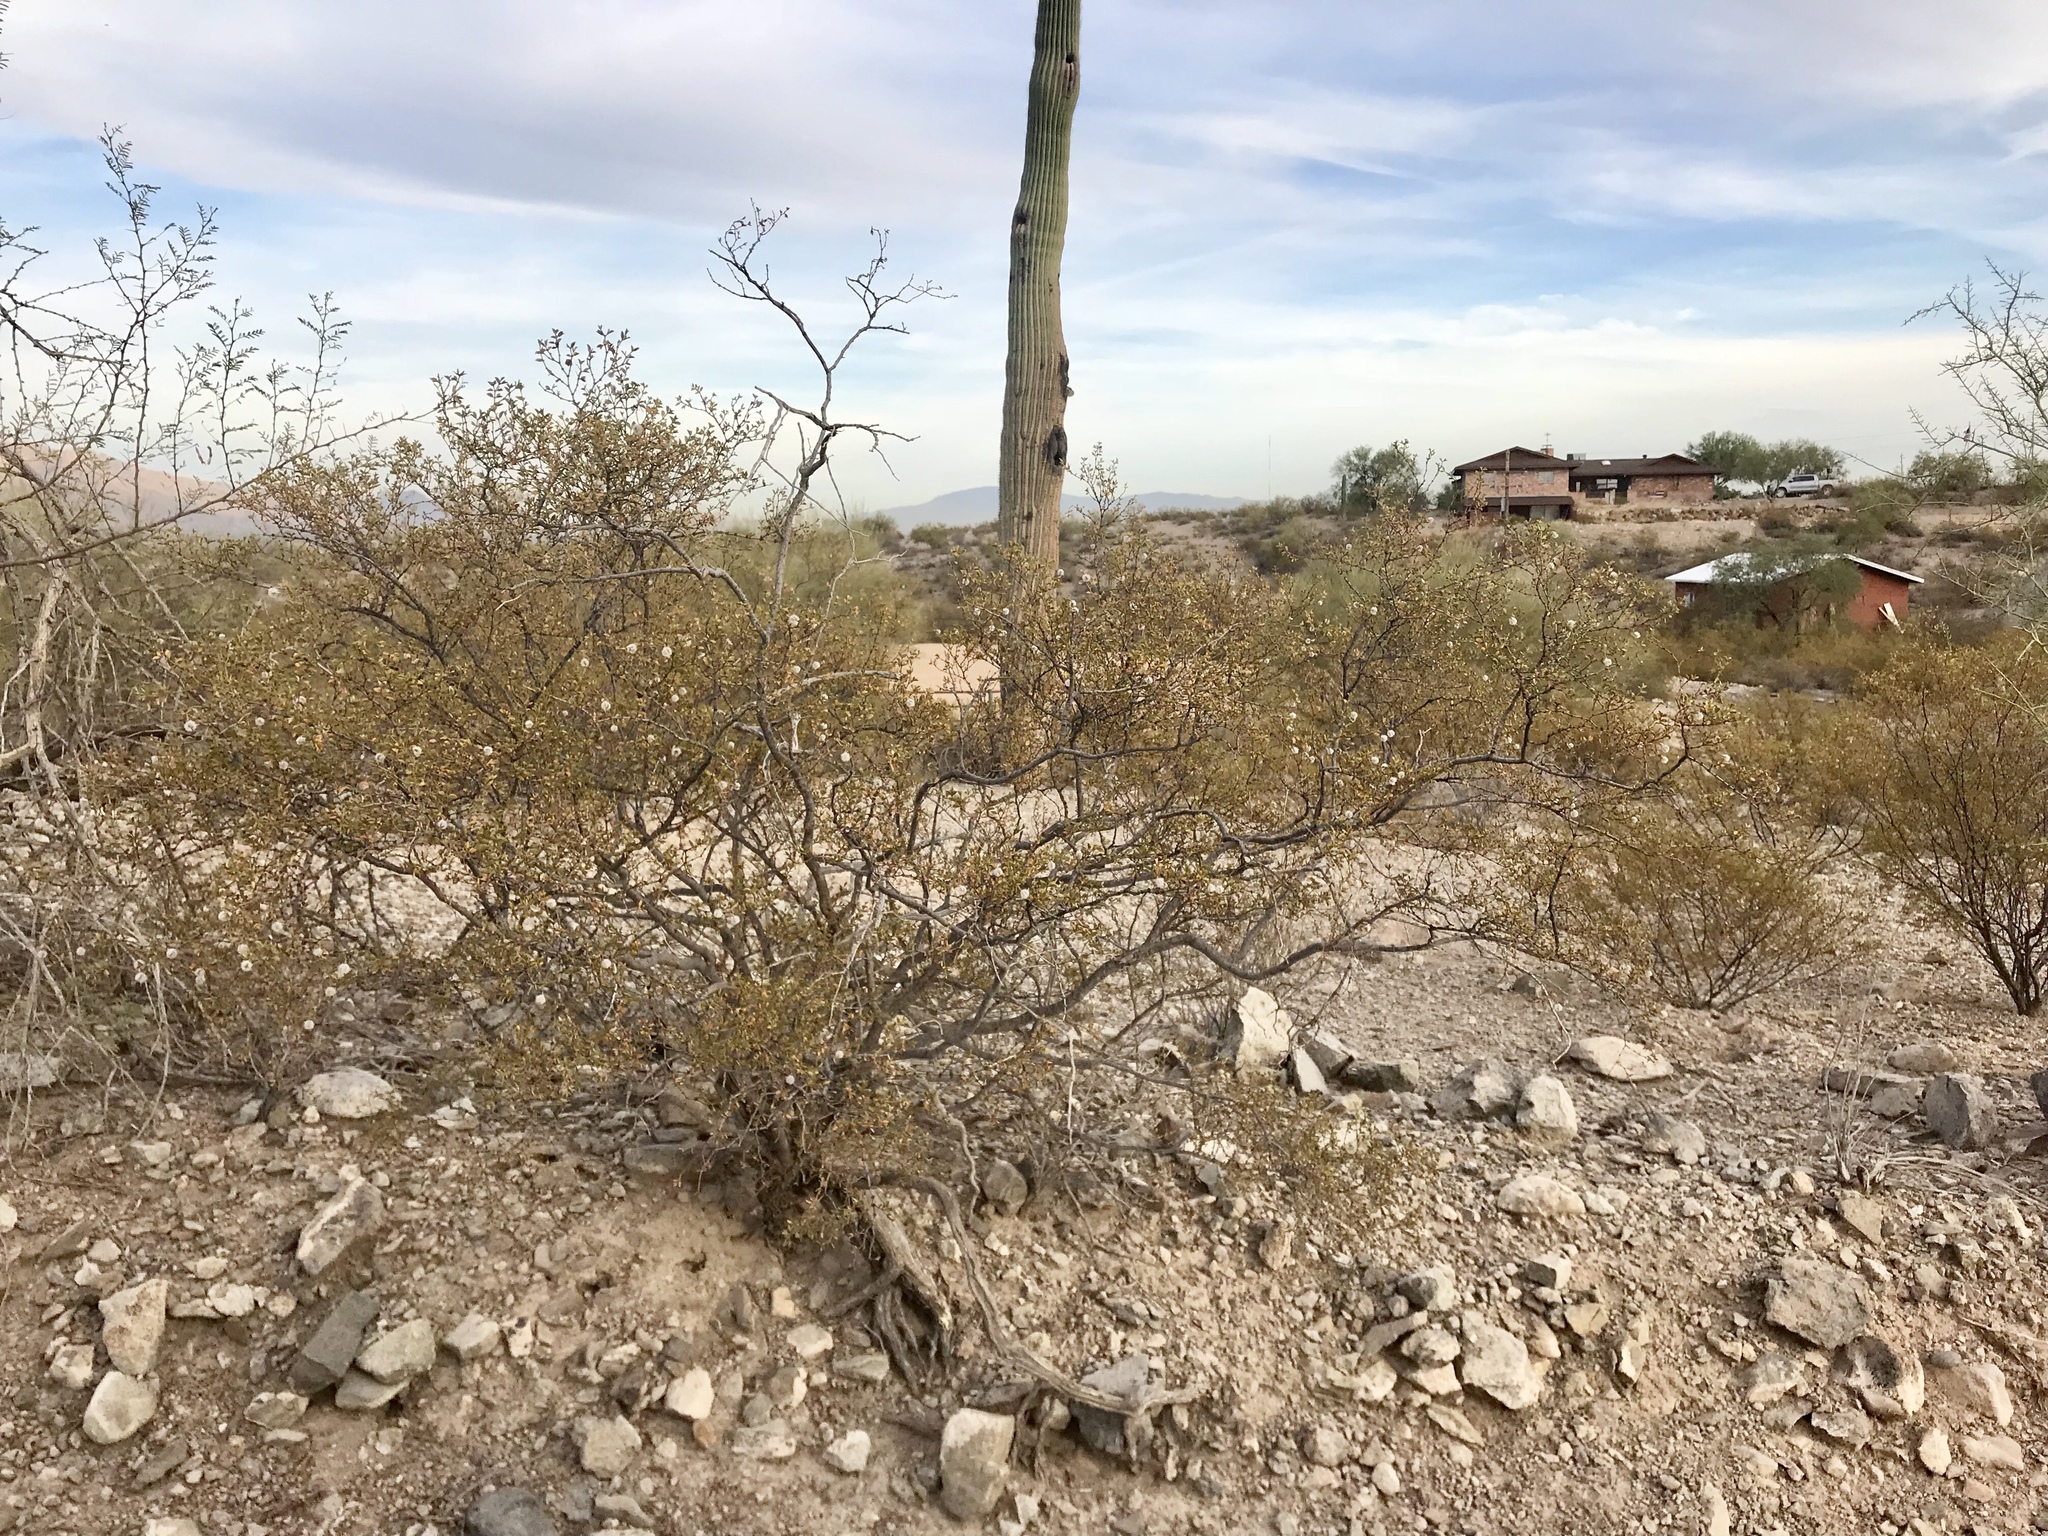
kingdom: Plantae
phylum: Tracheophyta
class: Magnoliopsida
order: Zygophyllales
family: Zygophyllaceae
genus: Larrea
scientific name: Larrea tridentata
